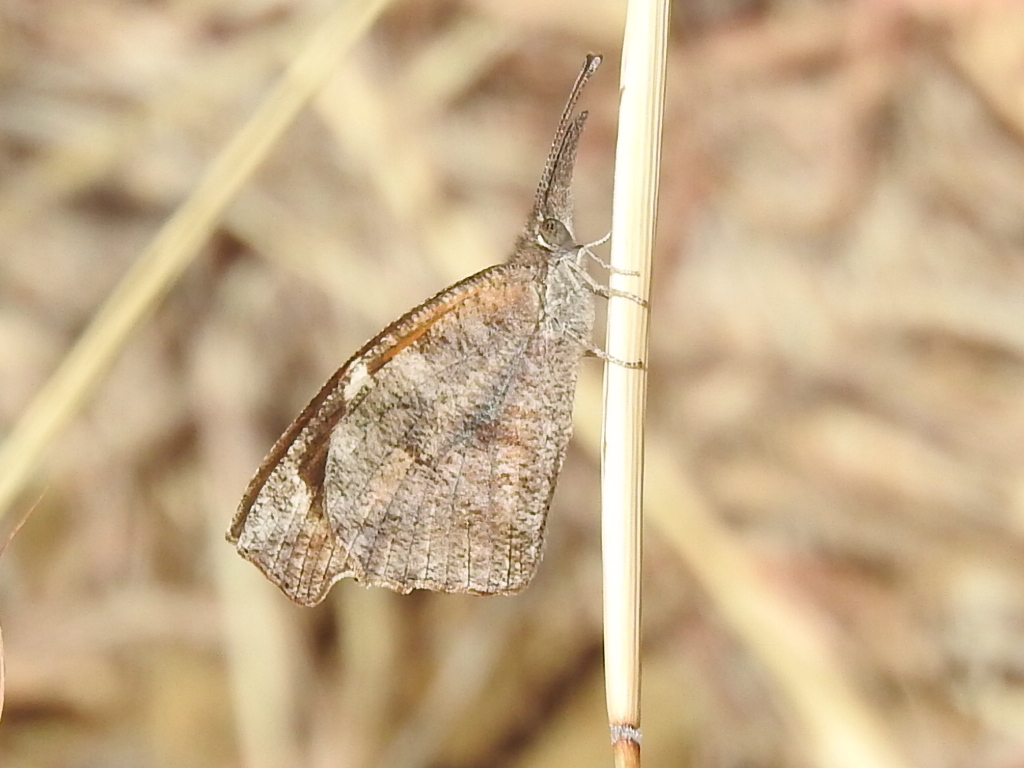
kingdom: Animalia
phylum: Arthropoda
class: Insecta
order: Lepidoptera
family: Nymphalidae
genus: Libytheana
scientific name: Libytheana carinenta
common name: American snout
